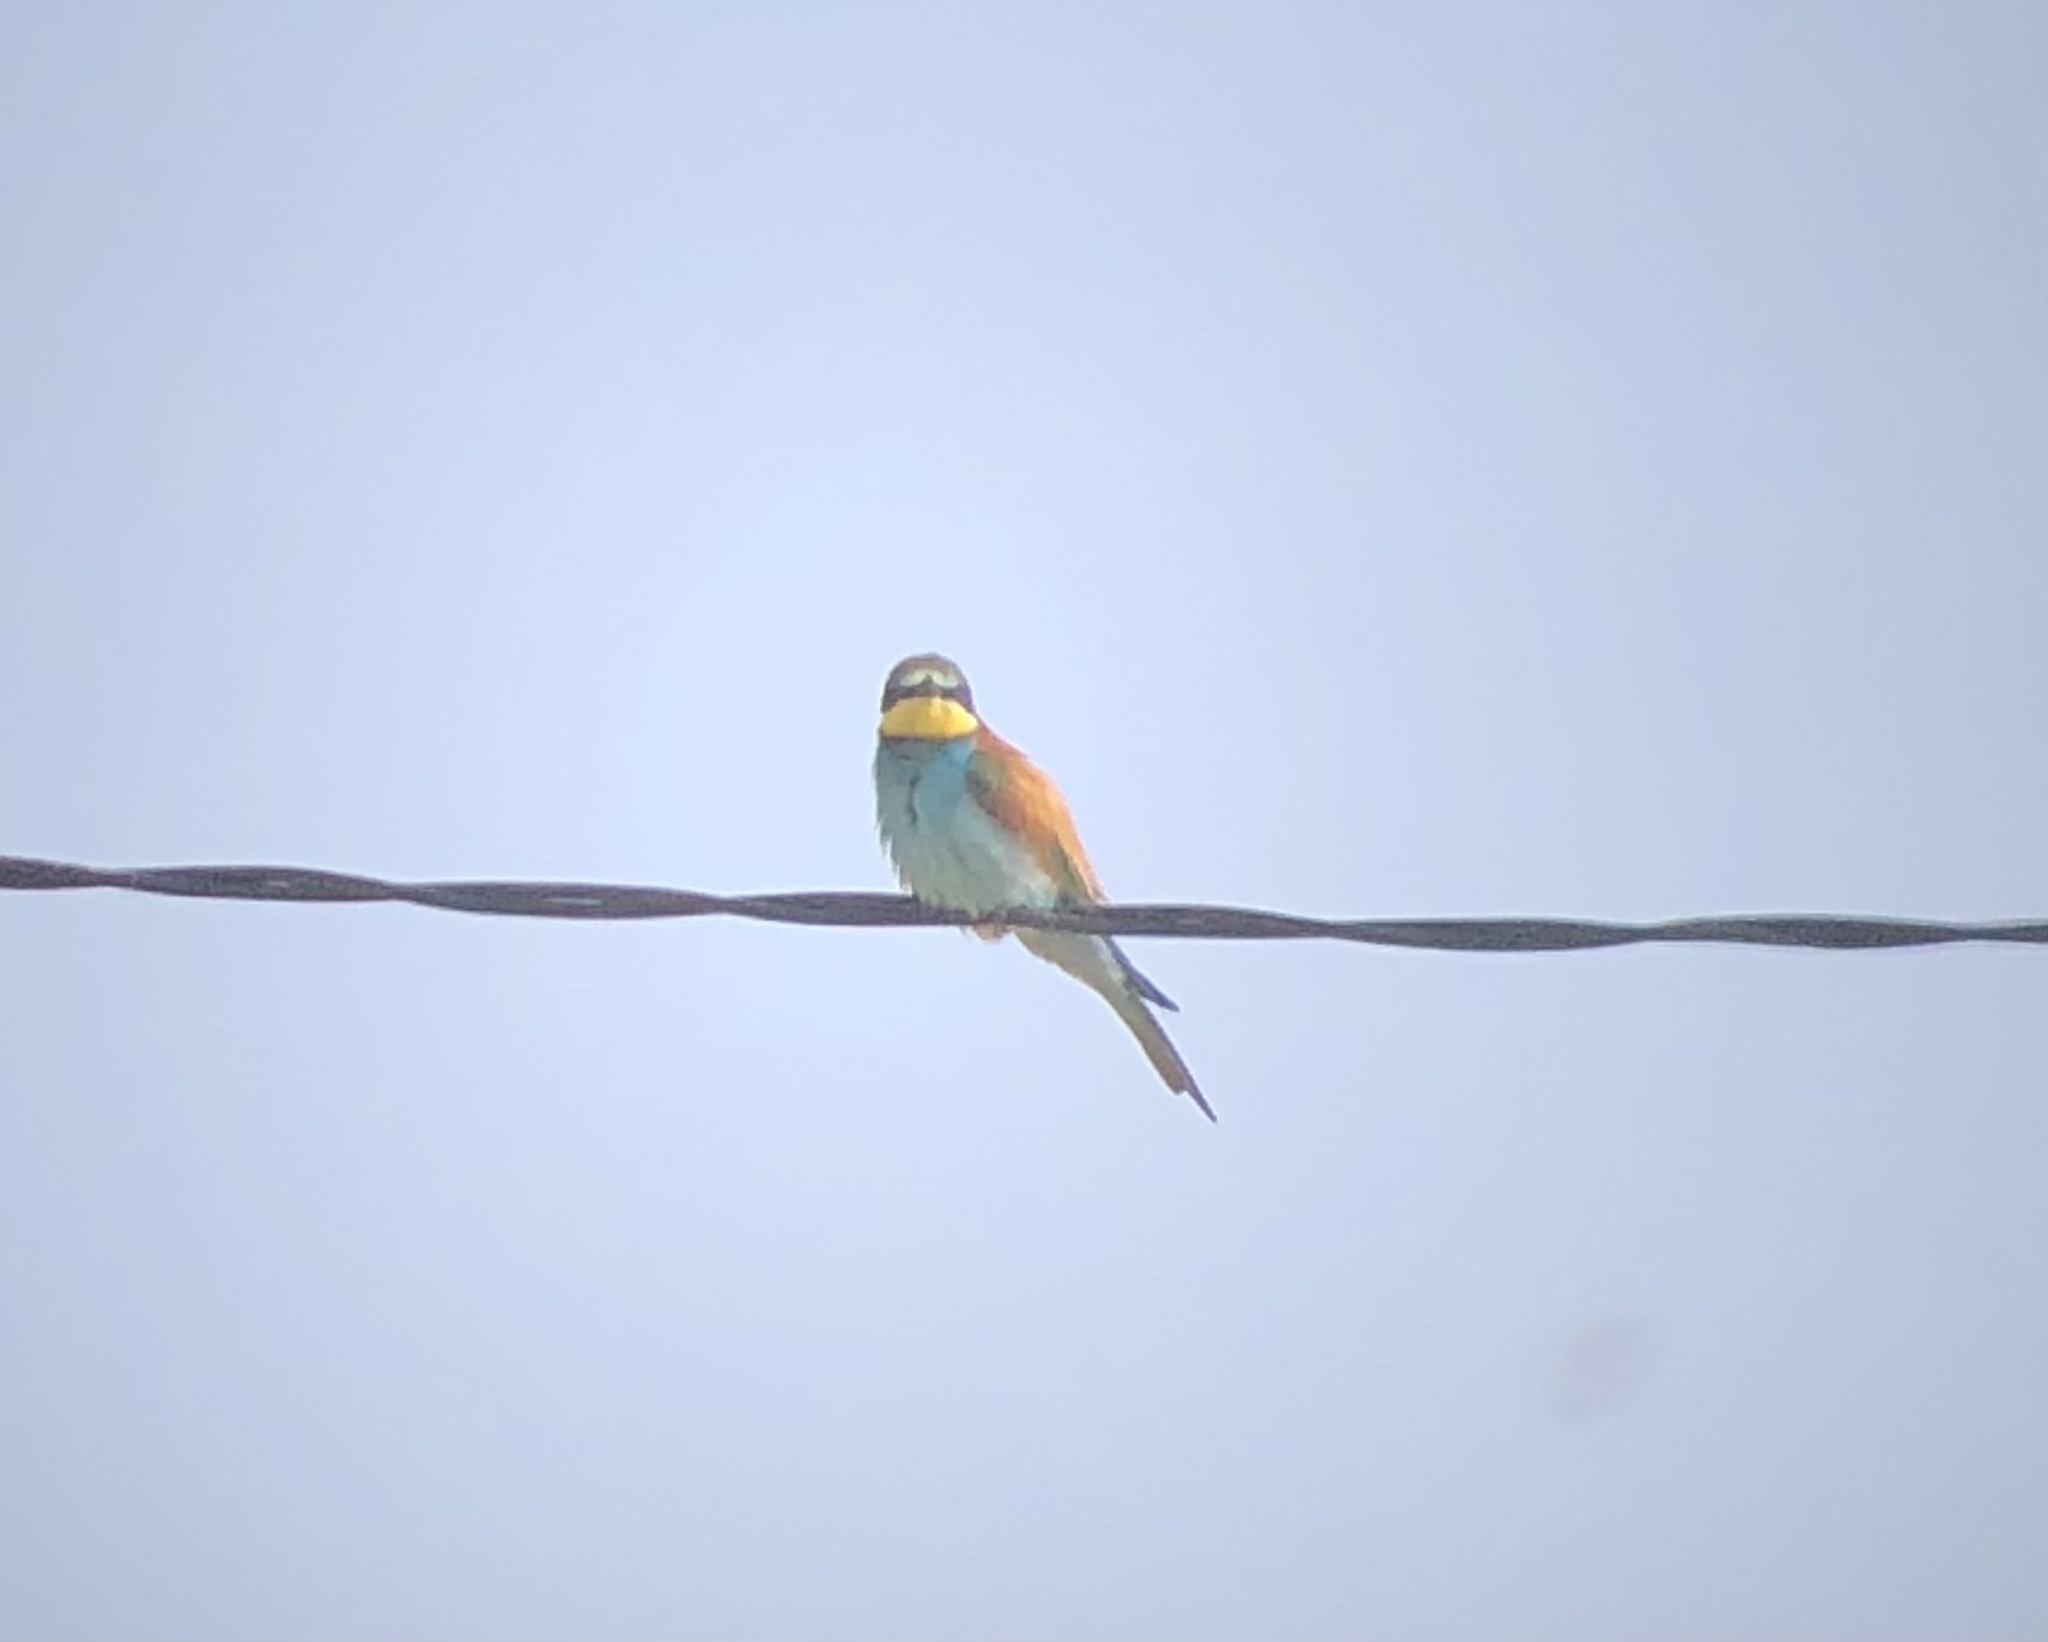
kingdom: Animalia
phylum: Chordata
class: Aves
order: Coraciiformes
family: Meropidae
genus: Merops
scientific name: Merops apiaster
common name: European bee-eater
